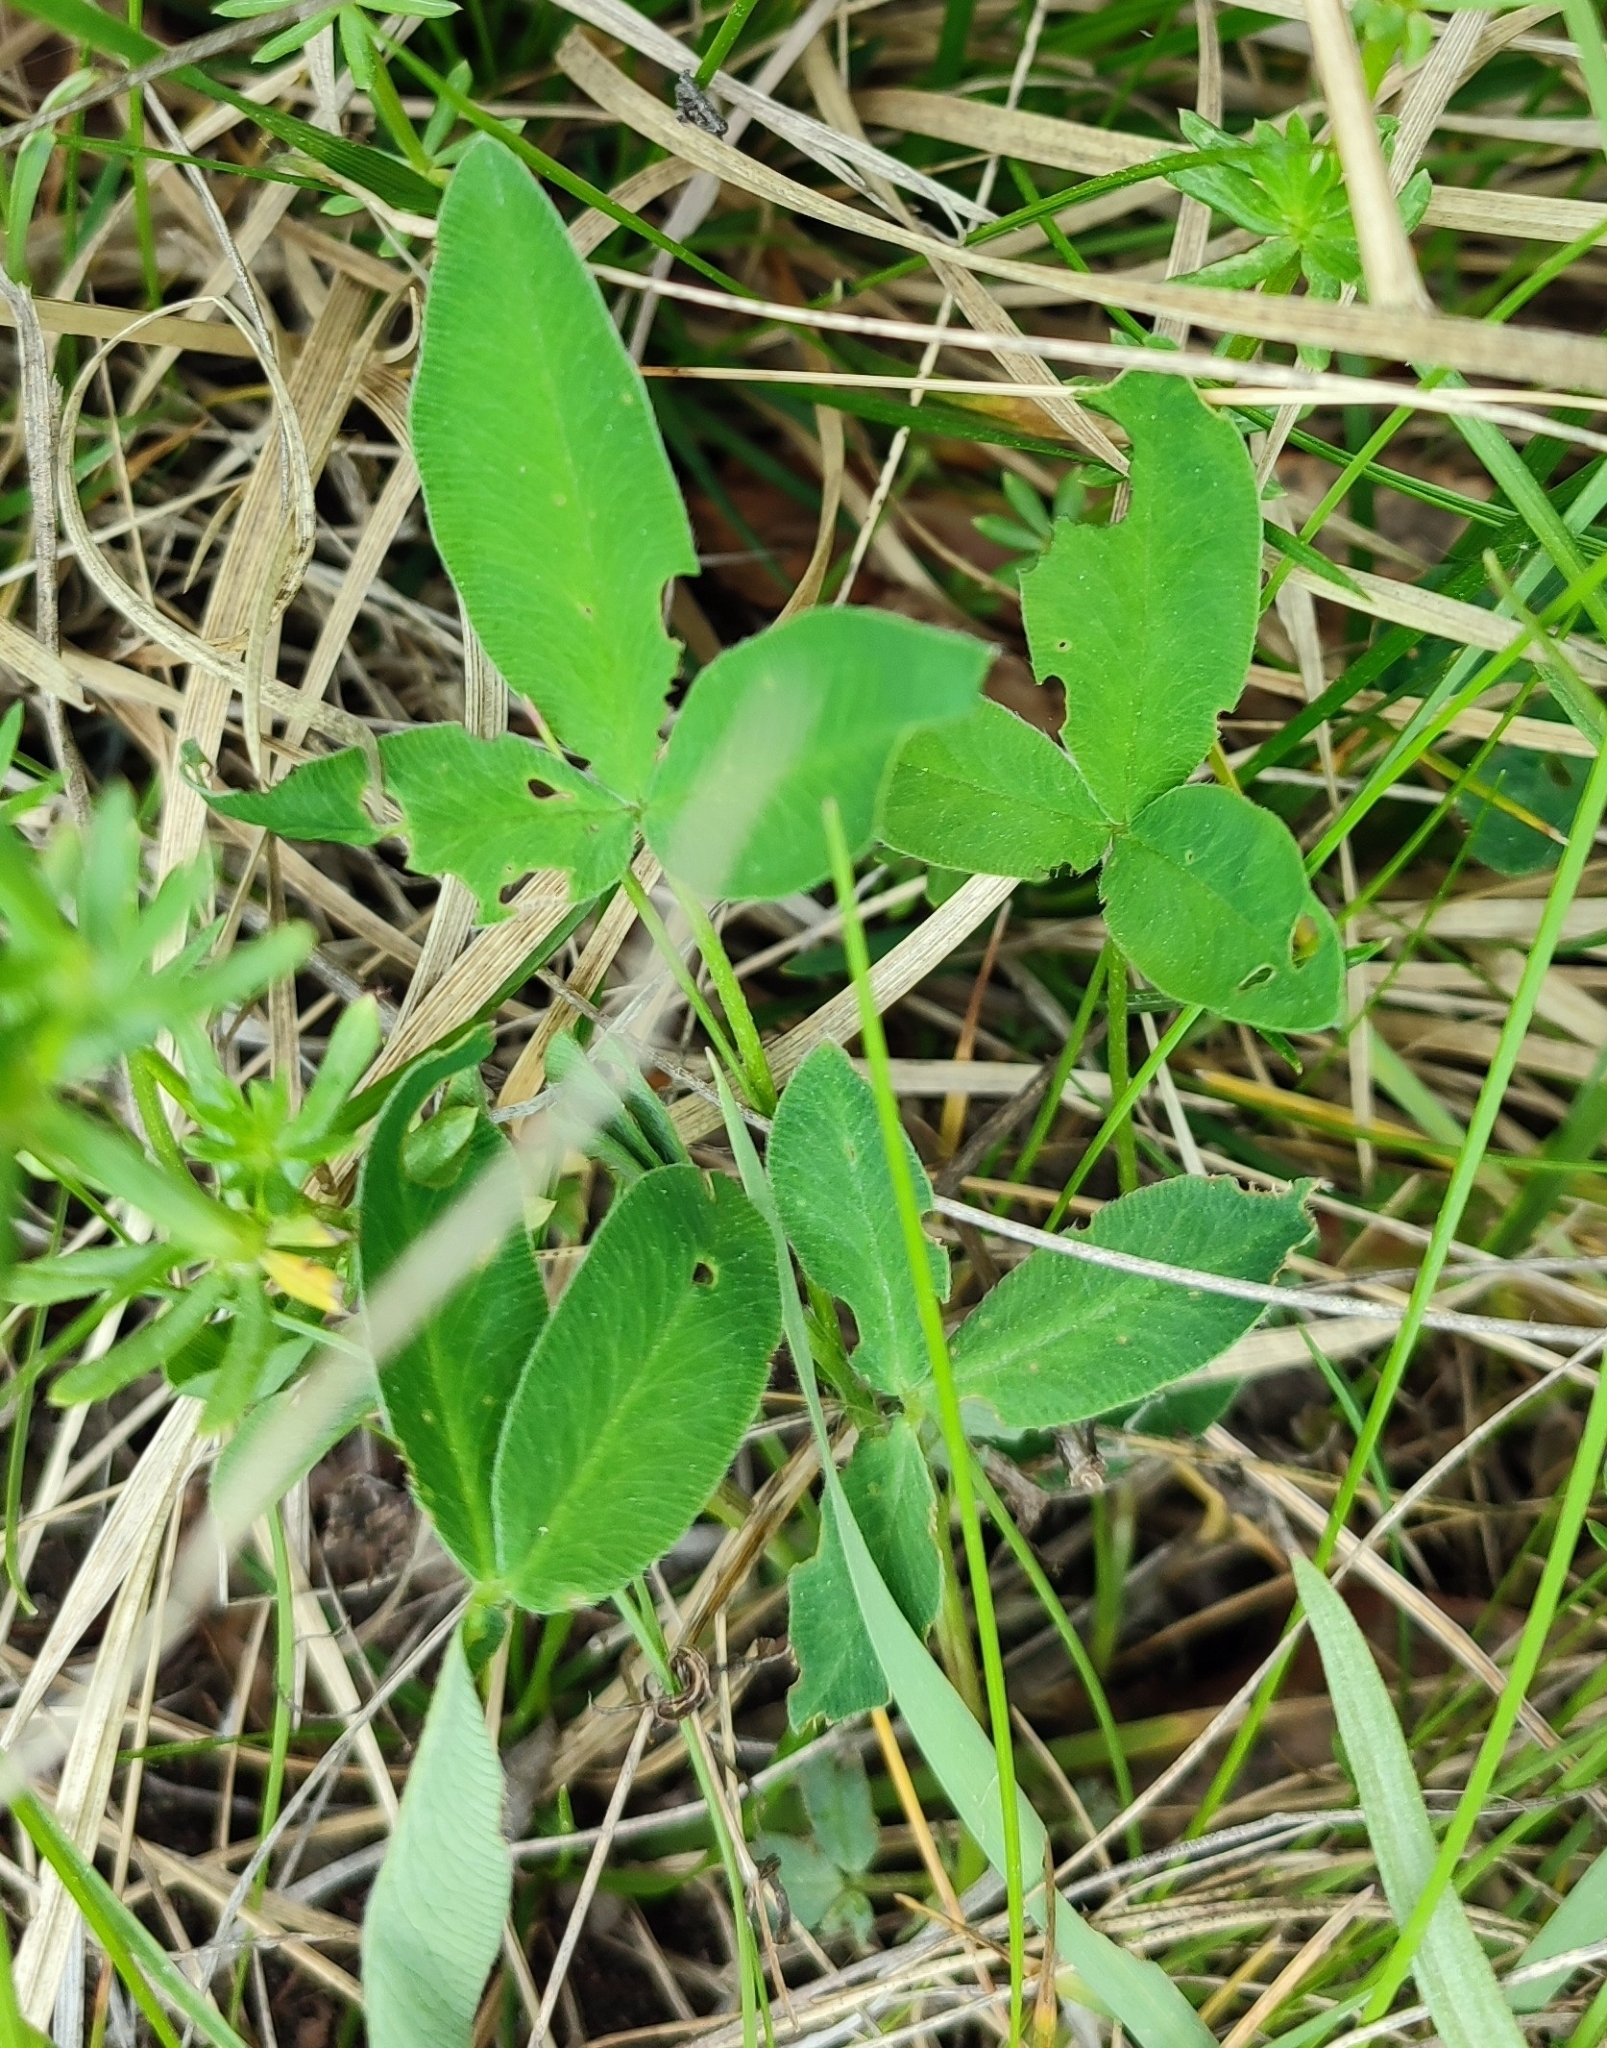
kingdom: Plantae
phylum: Tracheophyta
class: Magnoliopsida
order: Fabales
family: Fabaceae
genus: Trifolium
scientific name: Trifolium medium
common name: Zigzag clover
